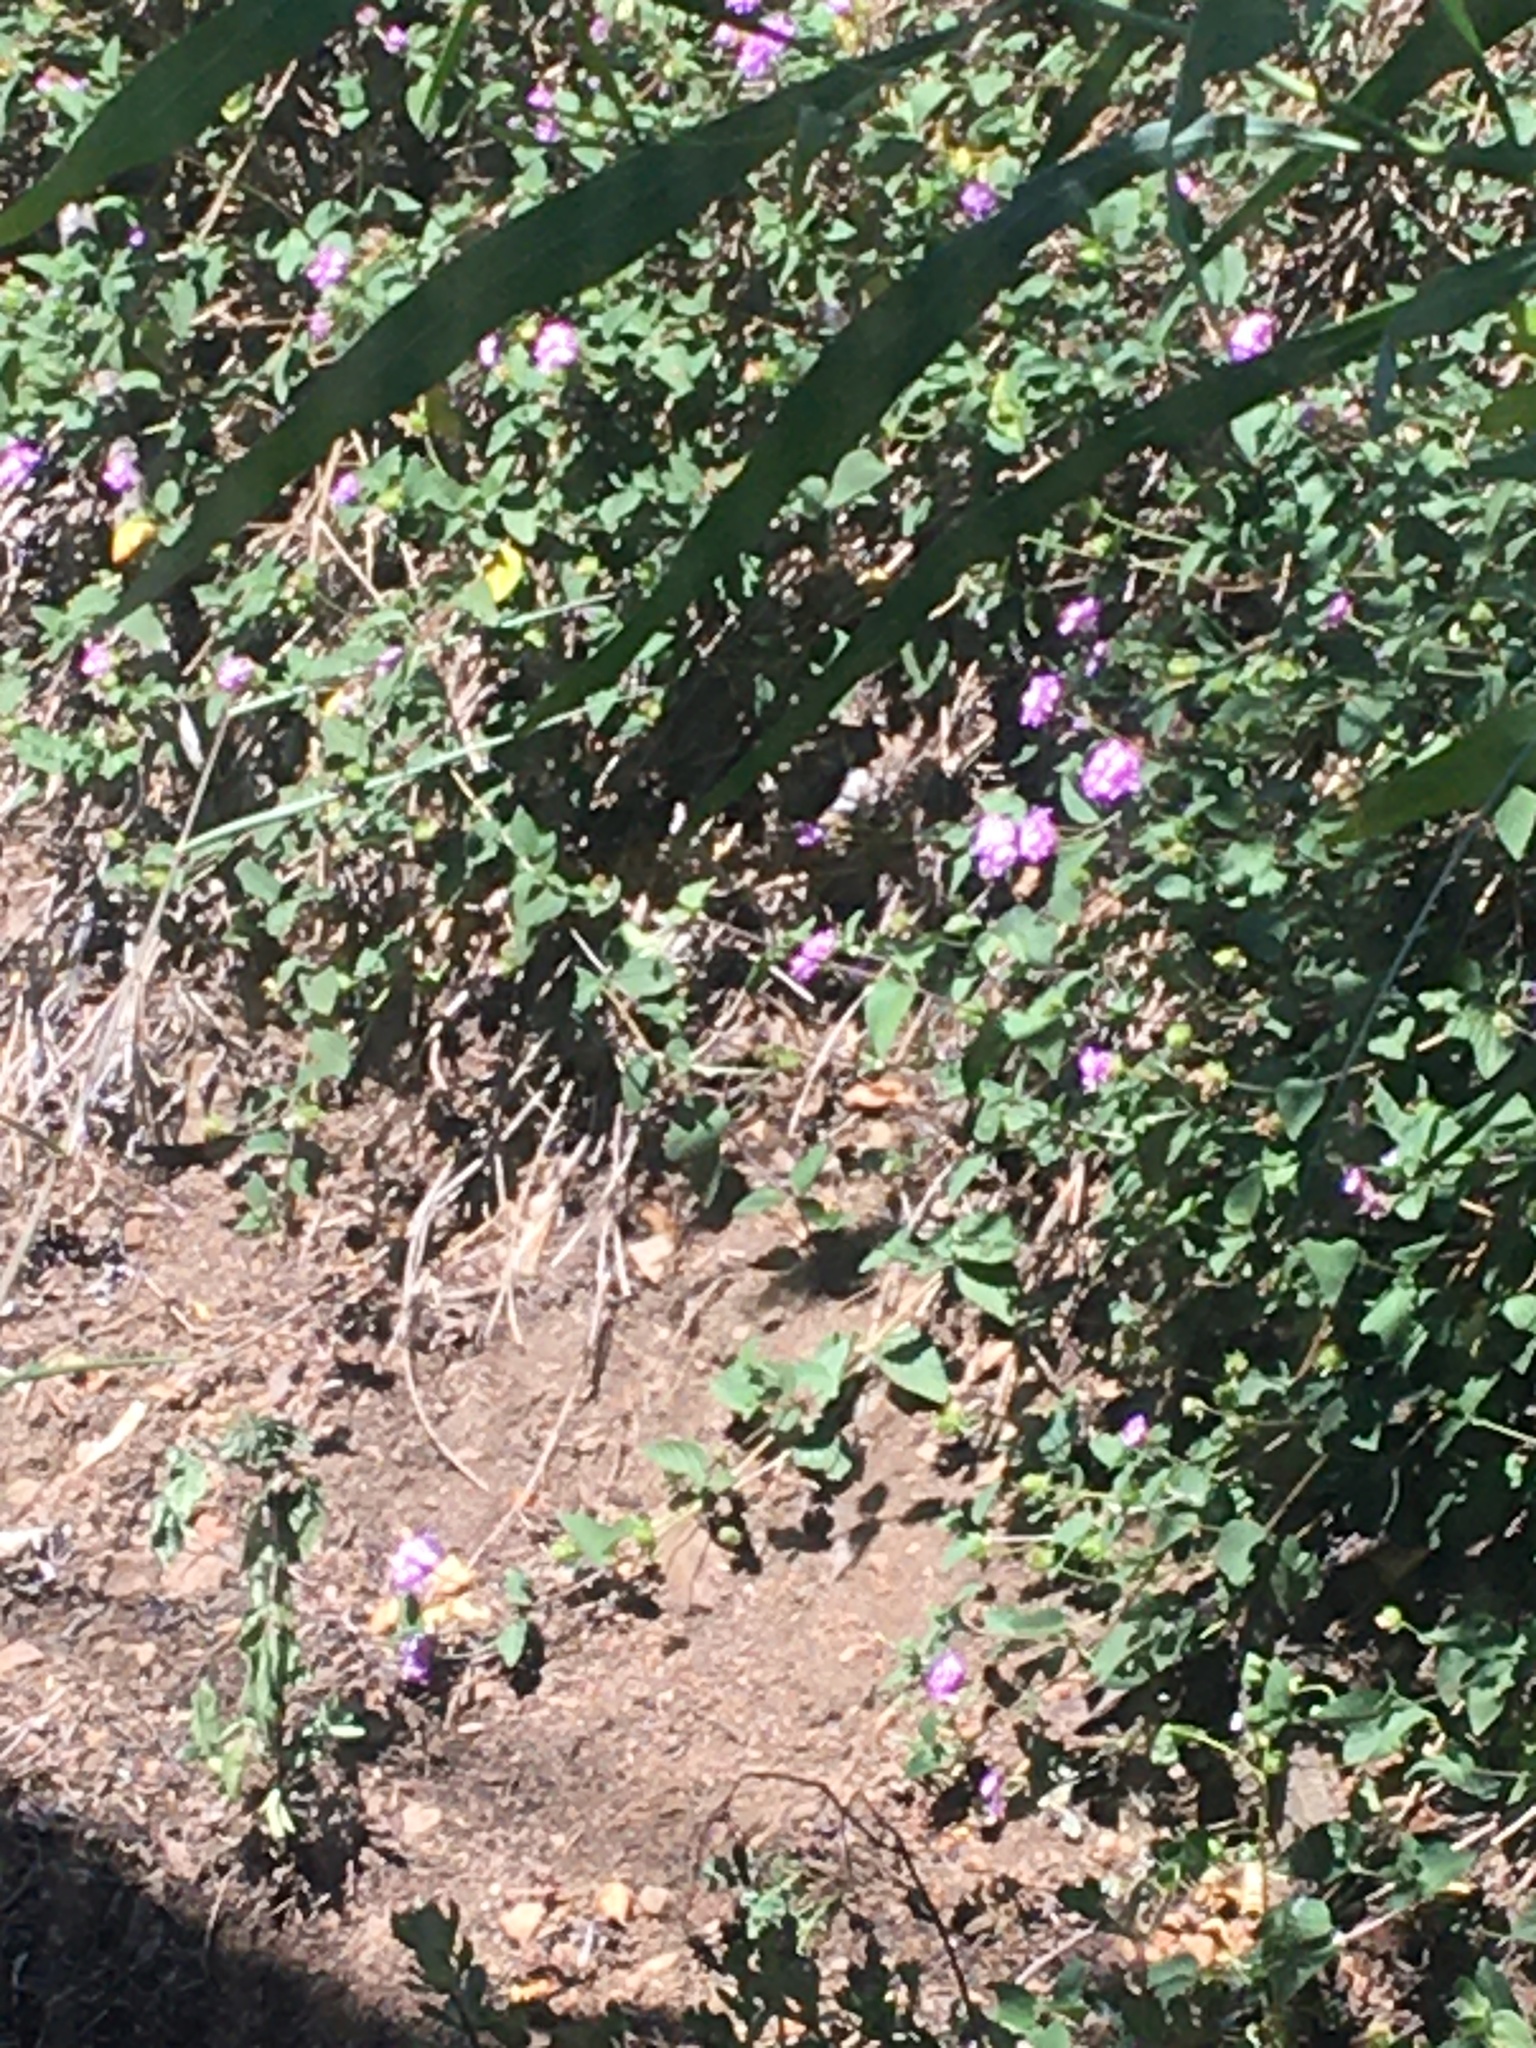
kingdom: Plantae
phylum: Tracheophyta
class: Magnoliopsida
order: Lamiales
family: Verbenaceae
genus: Lantana
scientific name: Lantana montevidensis
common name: Trailing shrubverbena
